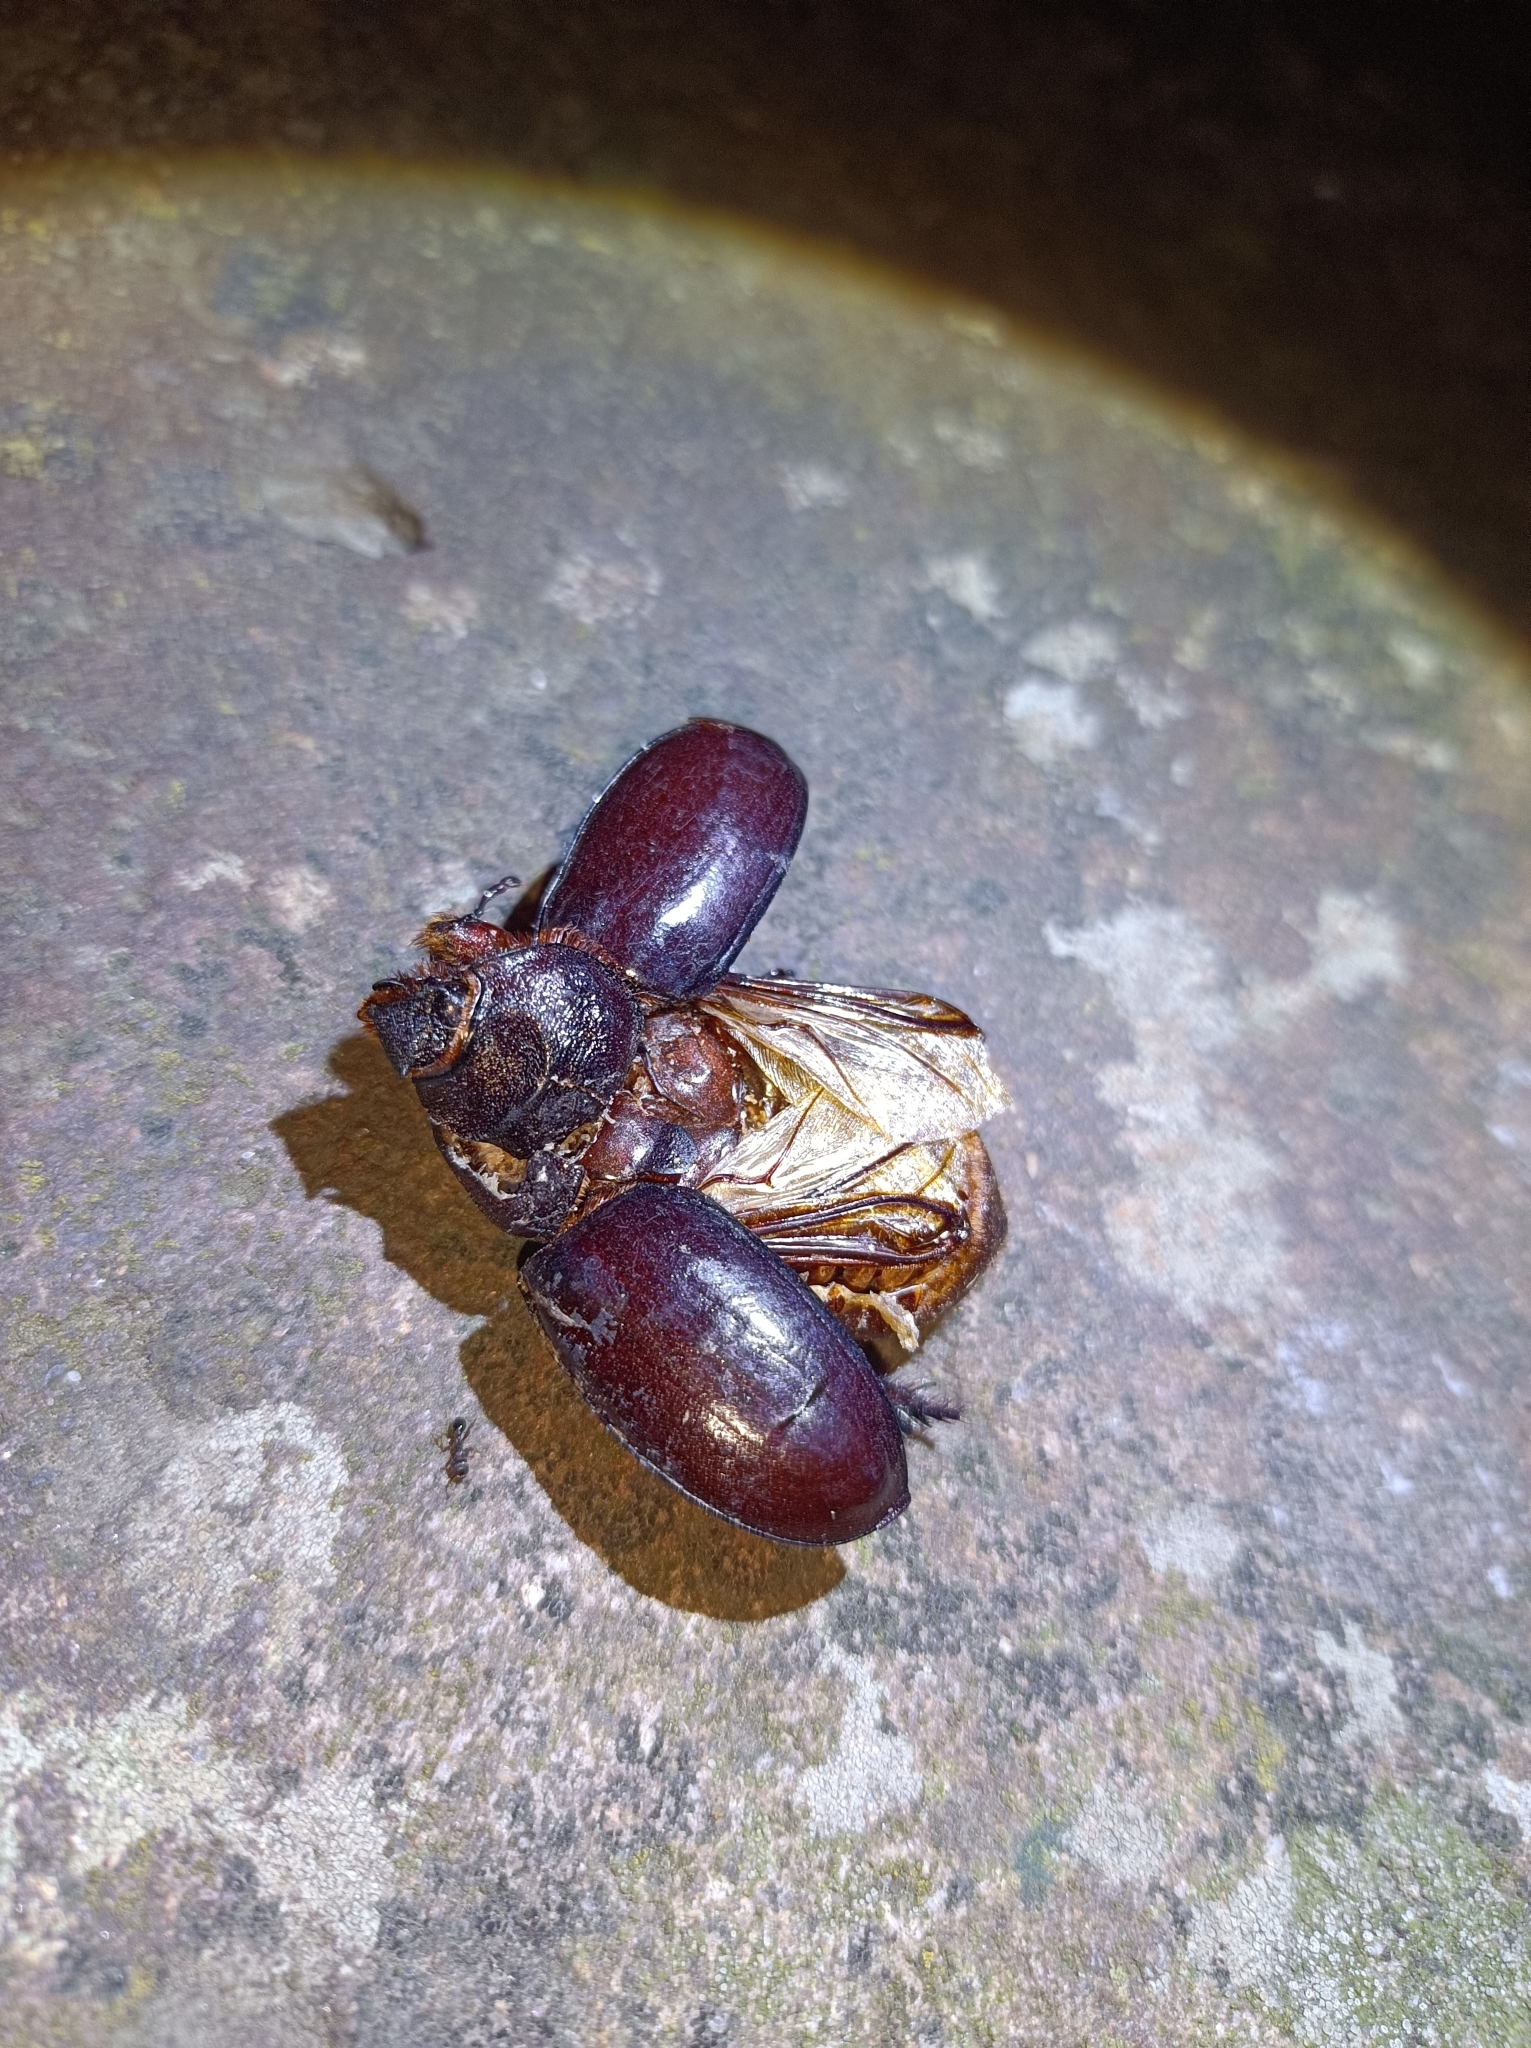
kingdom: Animalia
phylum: Arthropoda
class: Insecta
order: Coleoptera
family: Scarabaeidae
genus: Oryctes
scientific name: Oryctes nasicornis
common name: European rhinoceros beetle
